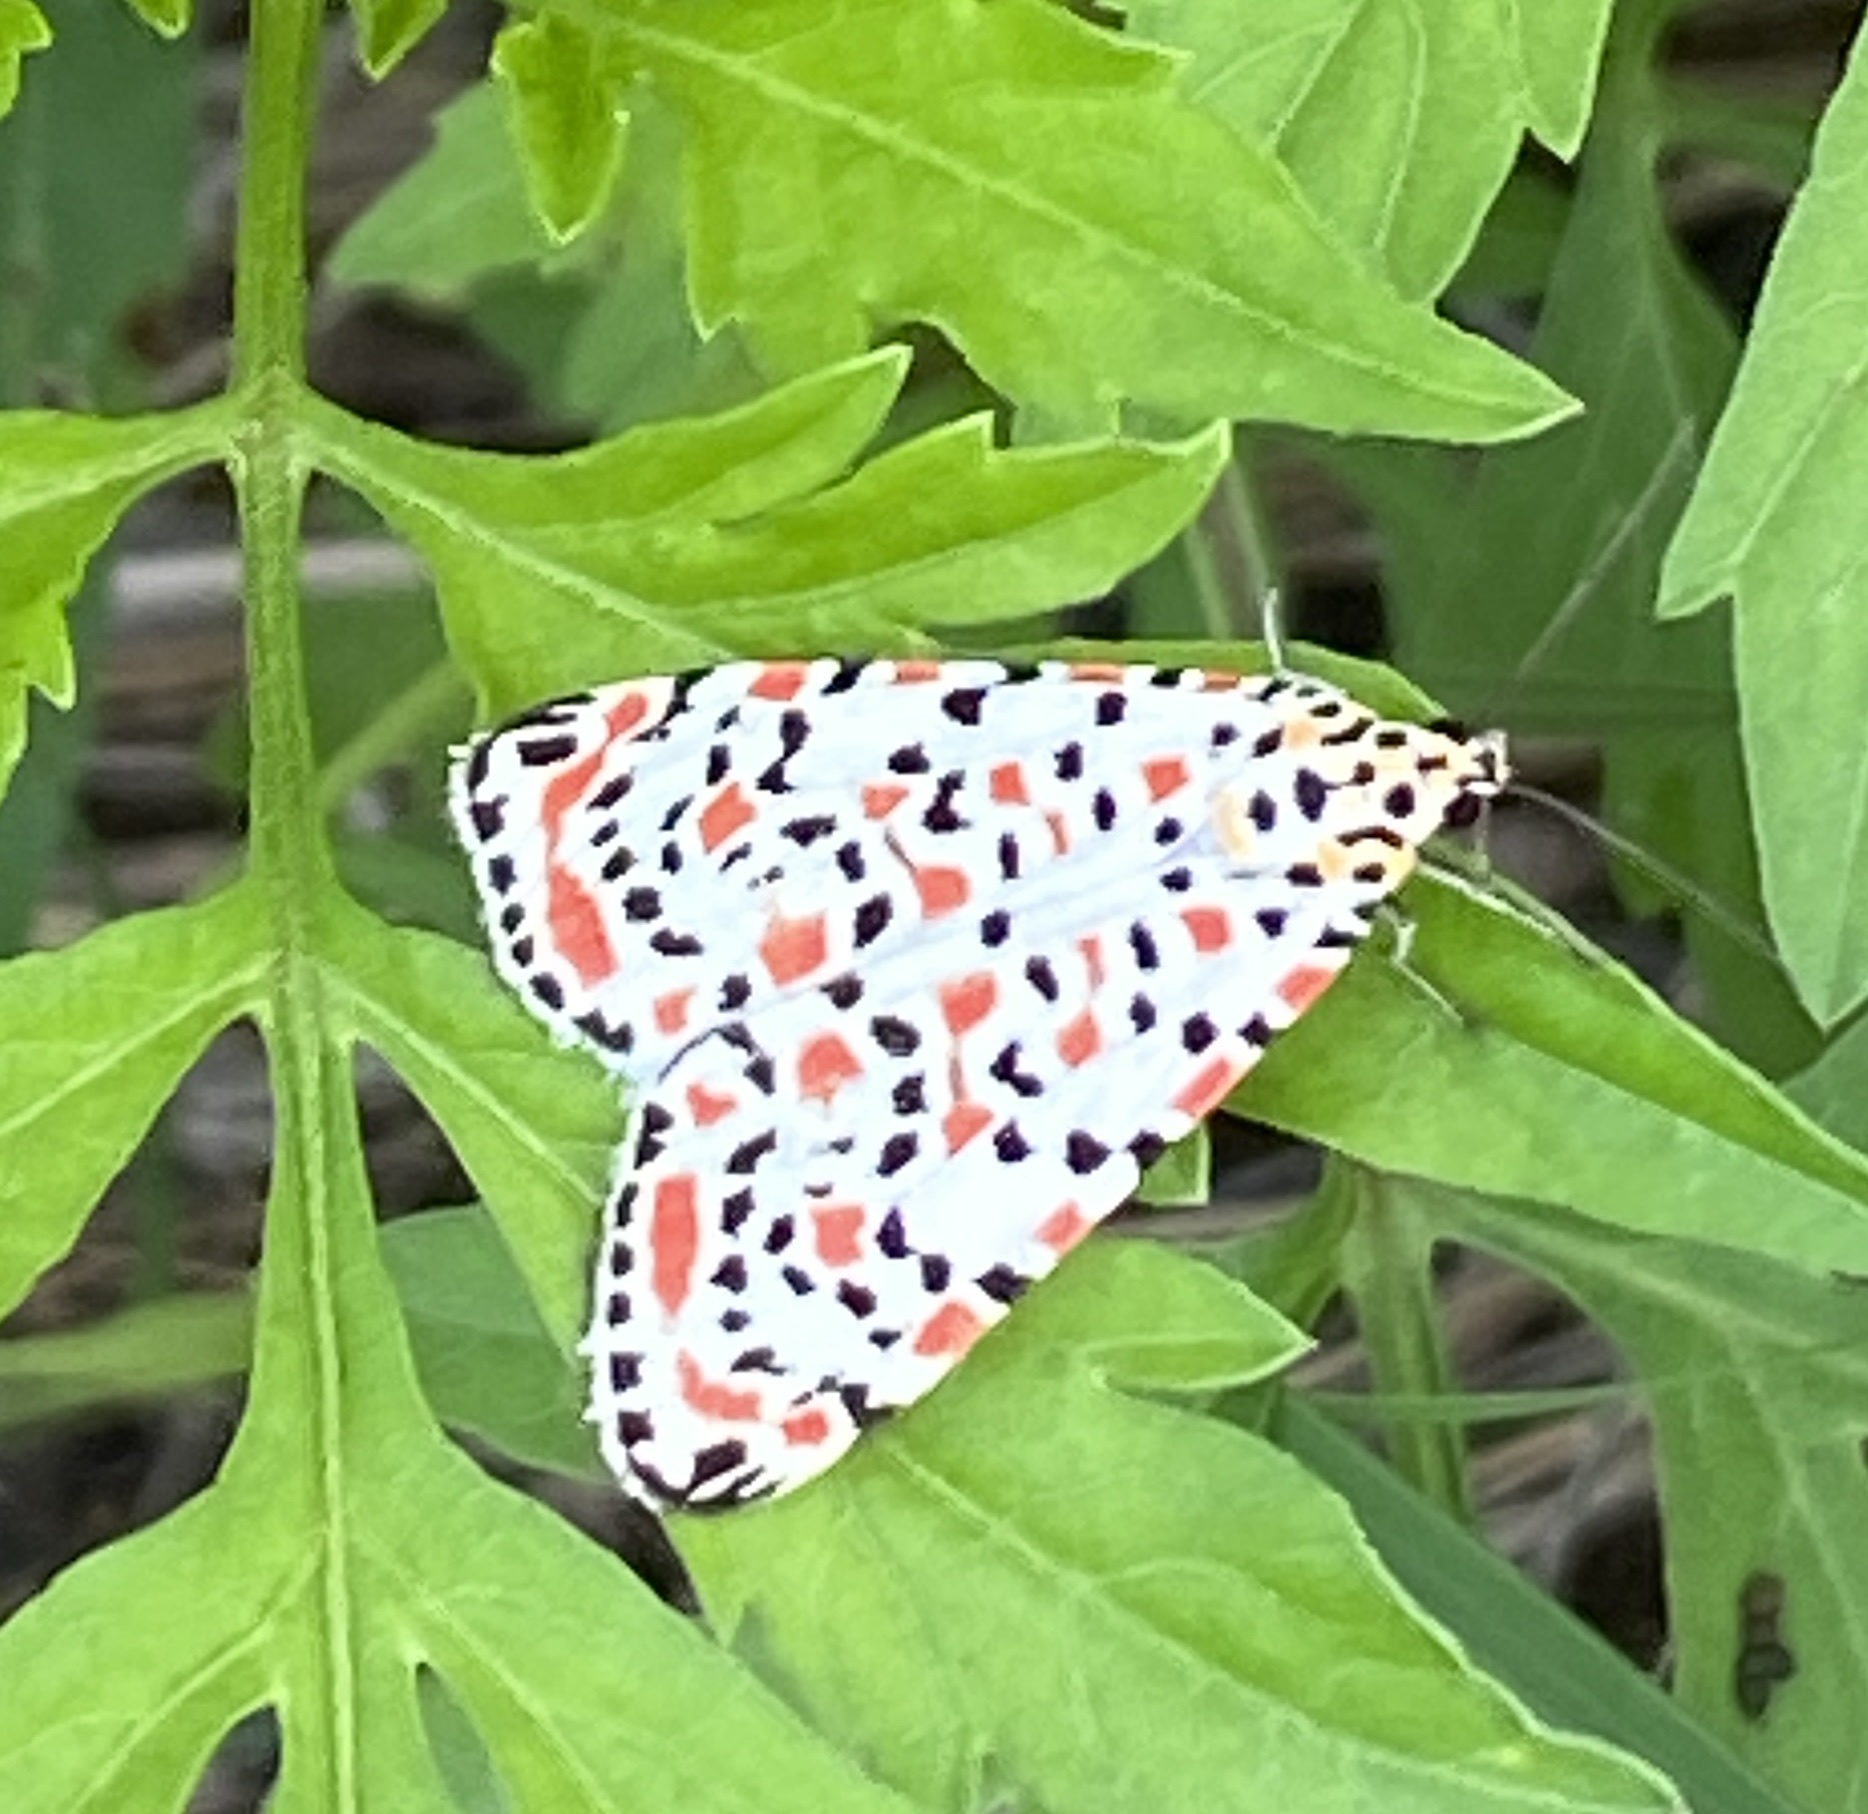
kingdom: Animalia
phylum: Arthropoda
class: Insecta
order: Lepidoptera
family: Erebidae
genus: Utetheisa
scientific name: Utetheisa pulchella
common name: Crimson speckled
